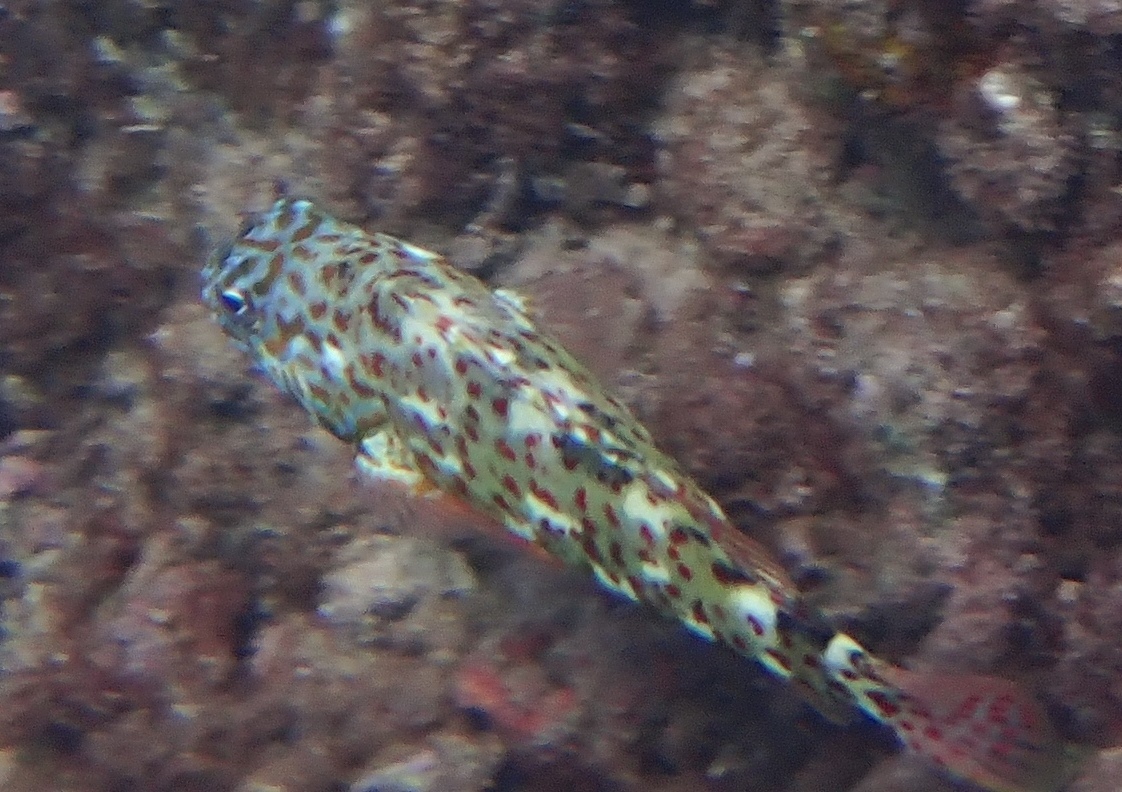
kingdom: Animalia
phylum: Chordata
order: Perciformes
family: Cirrhitidae
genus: Cirrhitus
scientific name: Cirrhitus pinnulatus
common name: Stocky hawkfish
